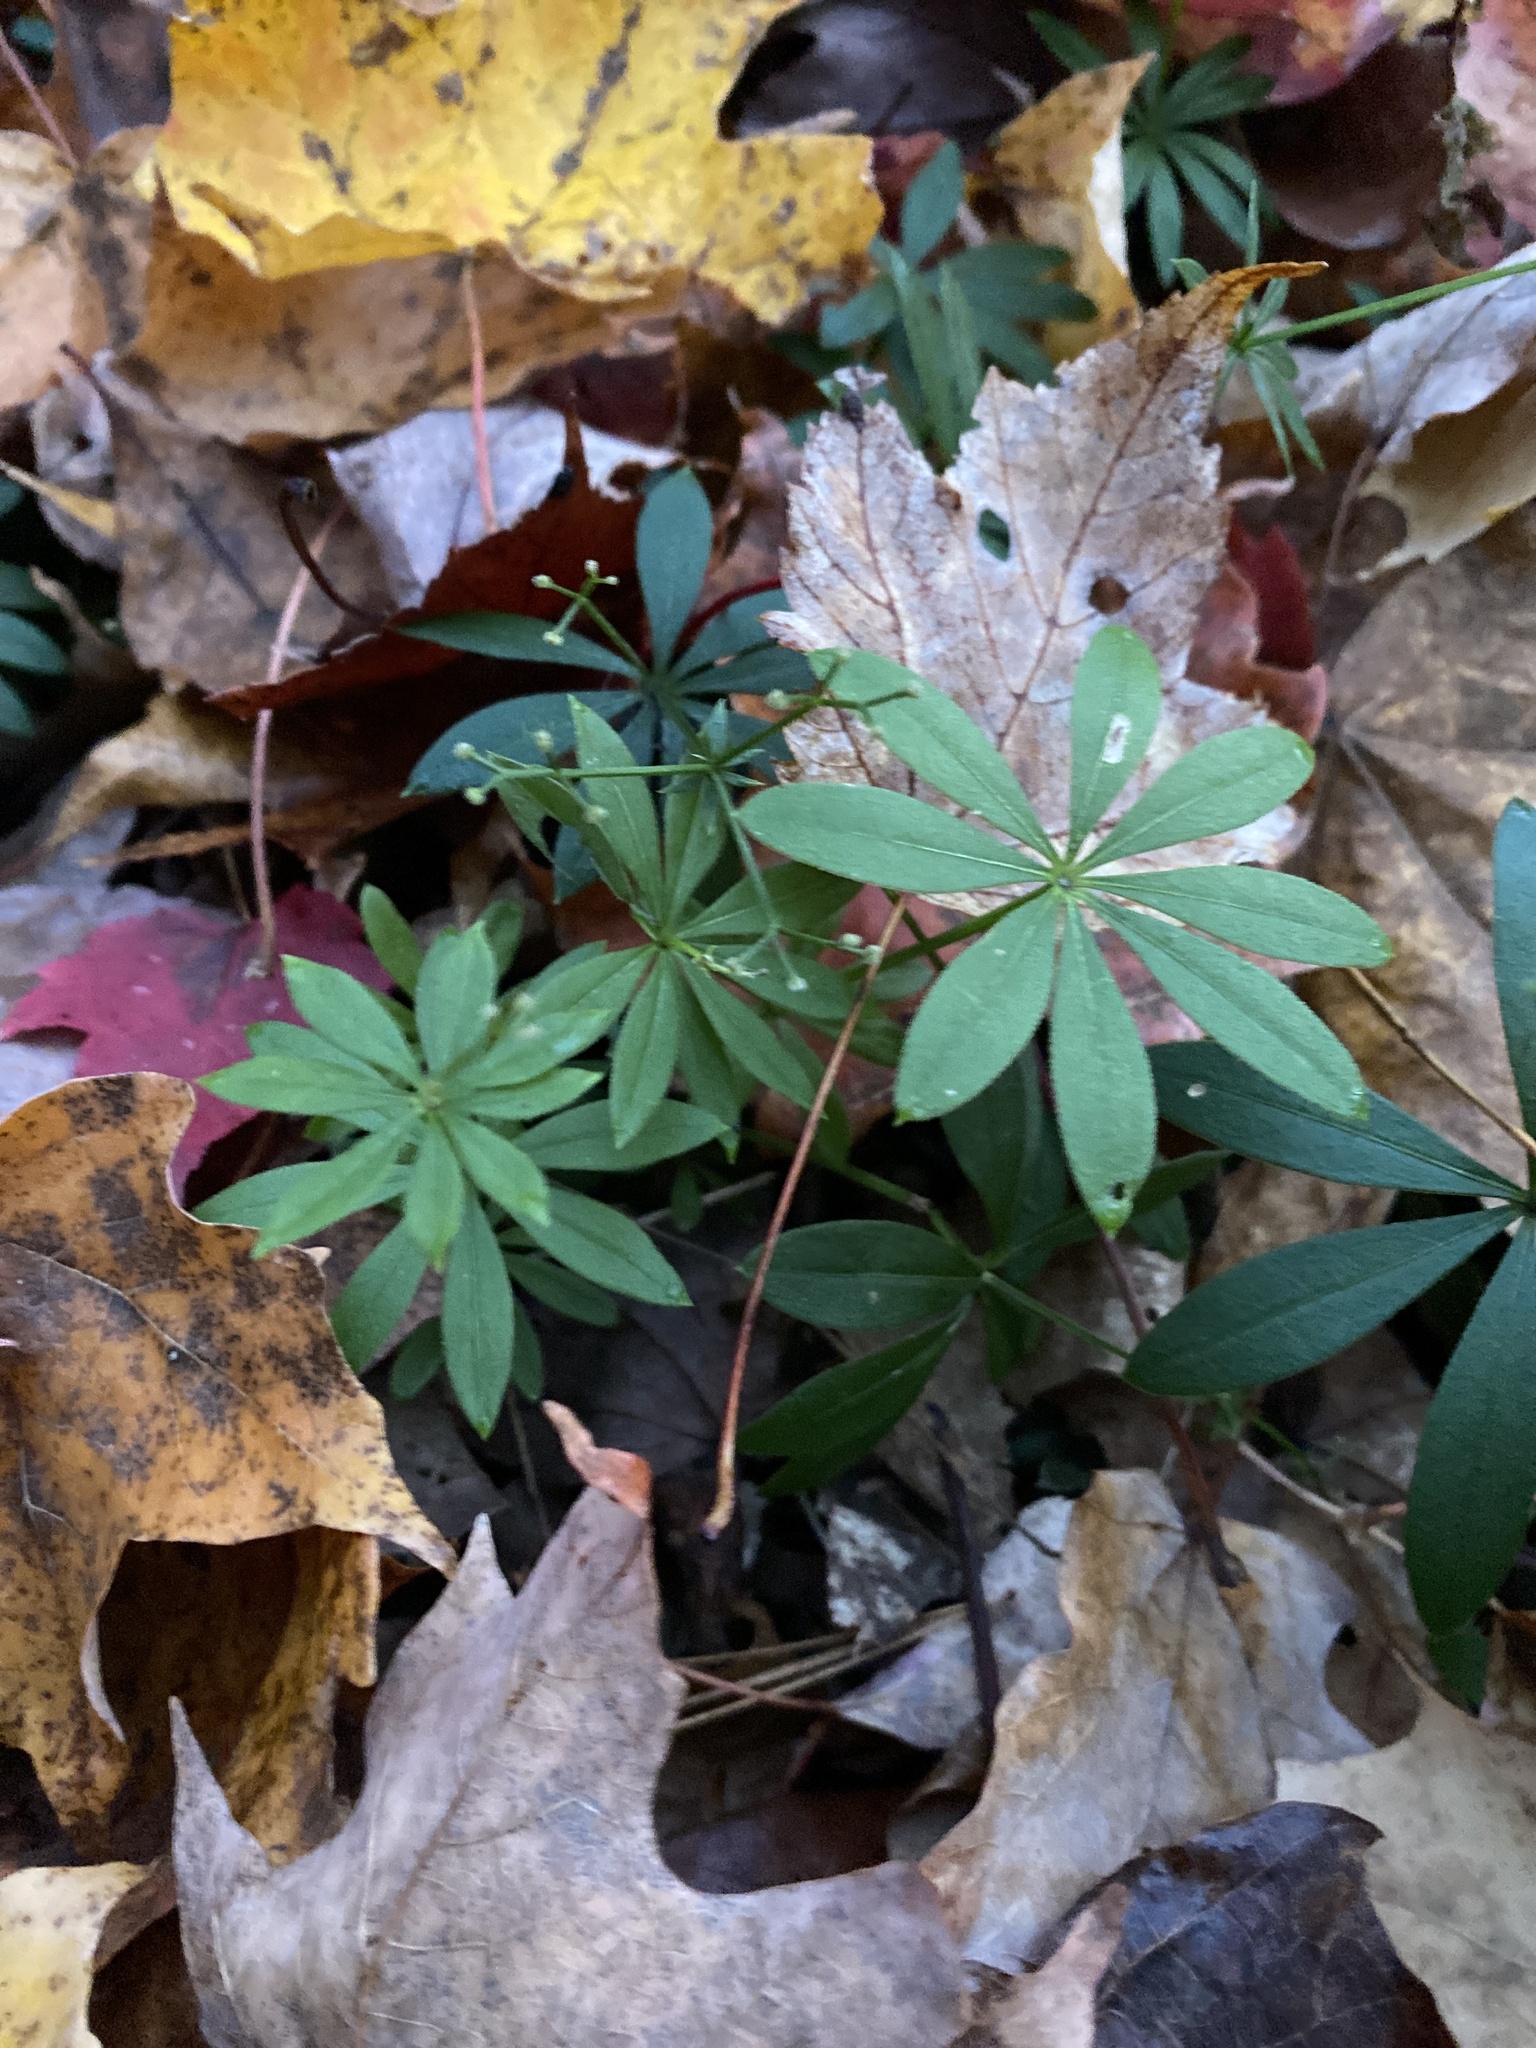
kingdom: Plantae
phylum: Tracheophyta
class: Magnoliopsida
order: Gentianales
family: Rubiaceae
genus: Galium
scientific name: Galium odoratum
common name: Sweet woodruff
